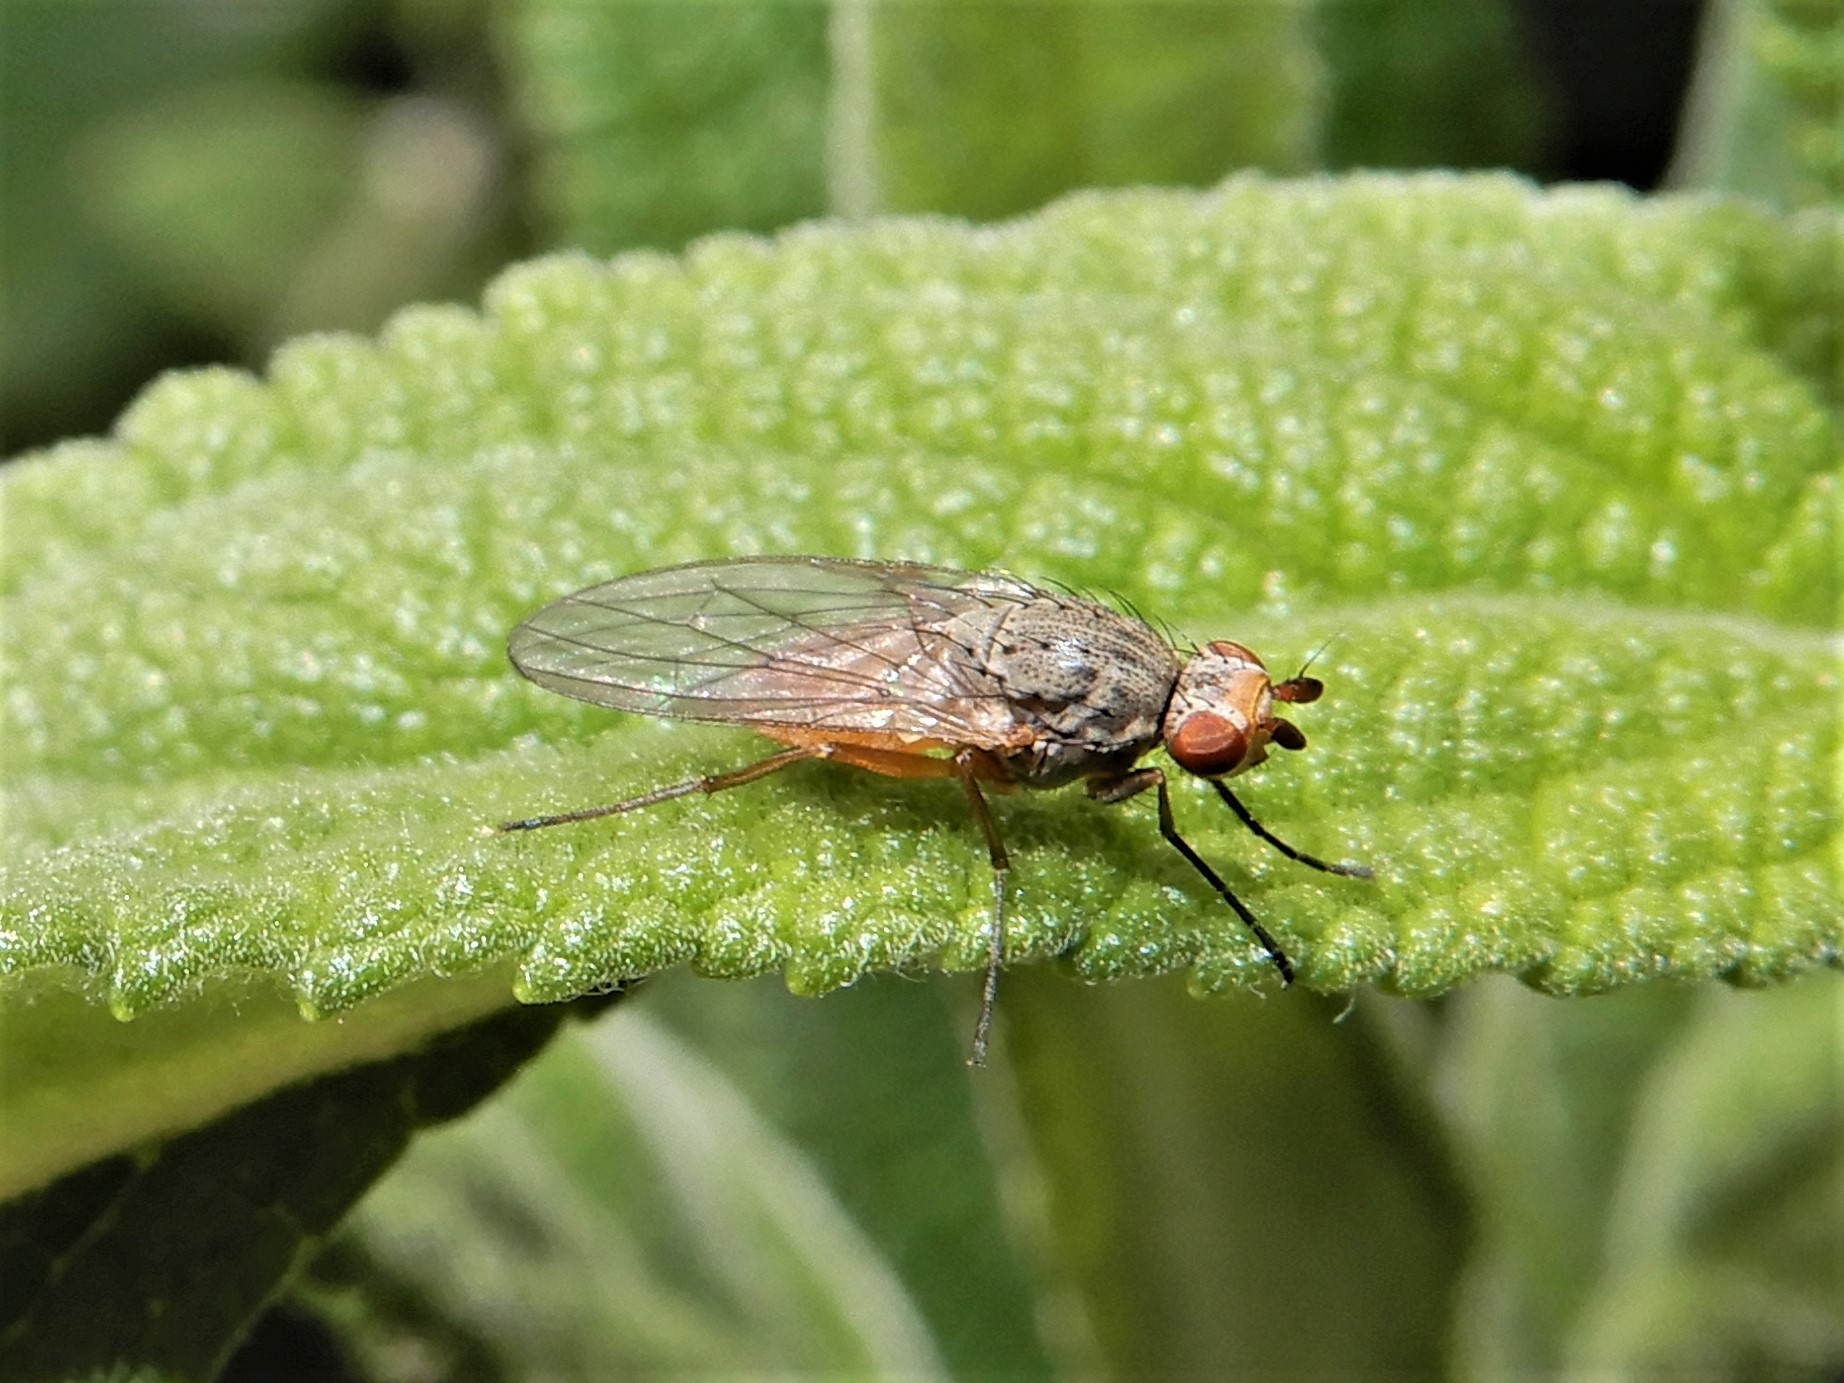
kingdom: Animalia
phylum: Arthropoda
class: Insecta
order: Diptera
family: Heleomyzidae
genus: Tephrochlamys
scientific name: Tephrochlamys rufiventris
